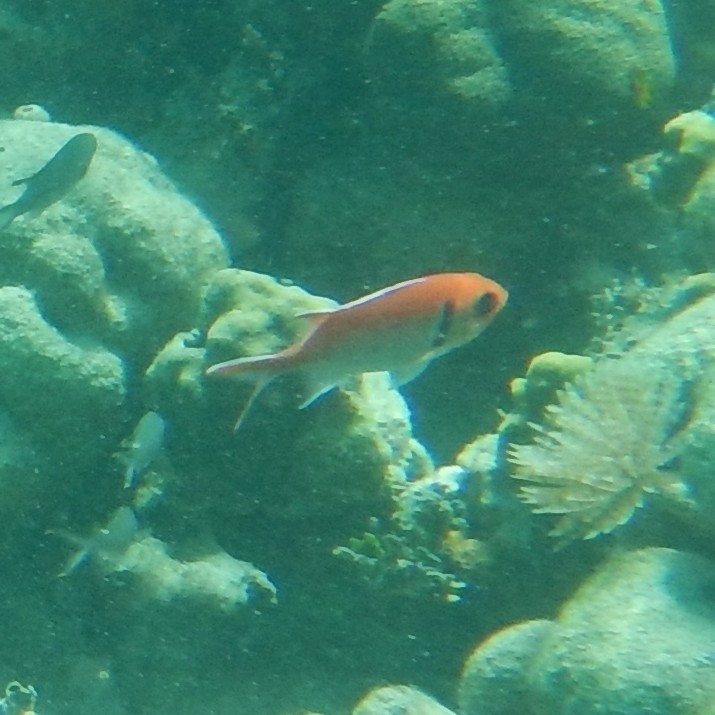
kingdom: Animalia
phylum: Chordata
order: Beryciformes
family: Holocentridae
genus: Myripristis
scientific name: Myripristis jacobus
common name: Blackbar soldierfish
